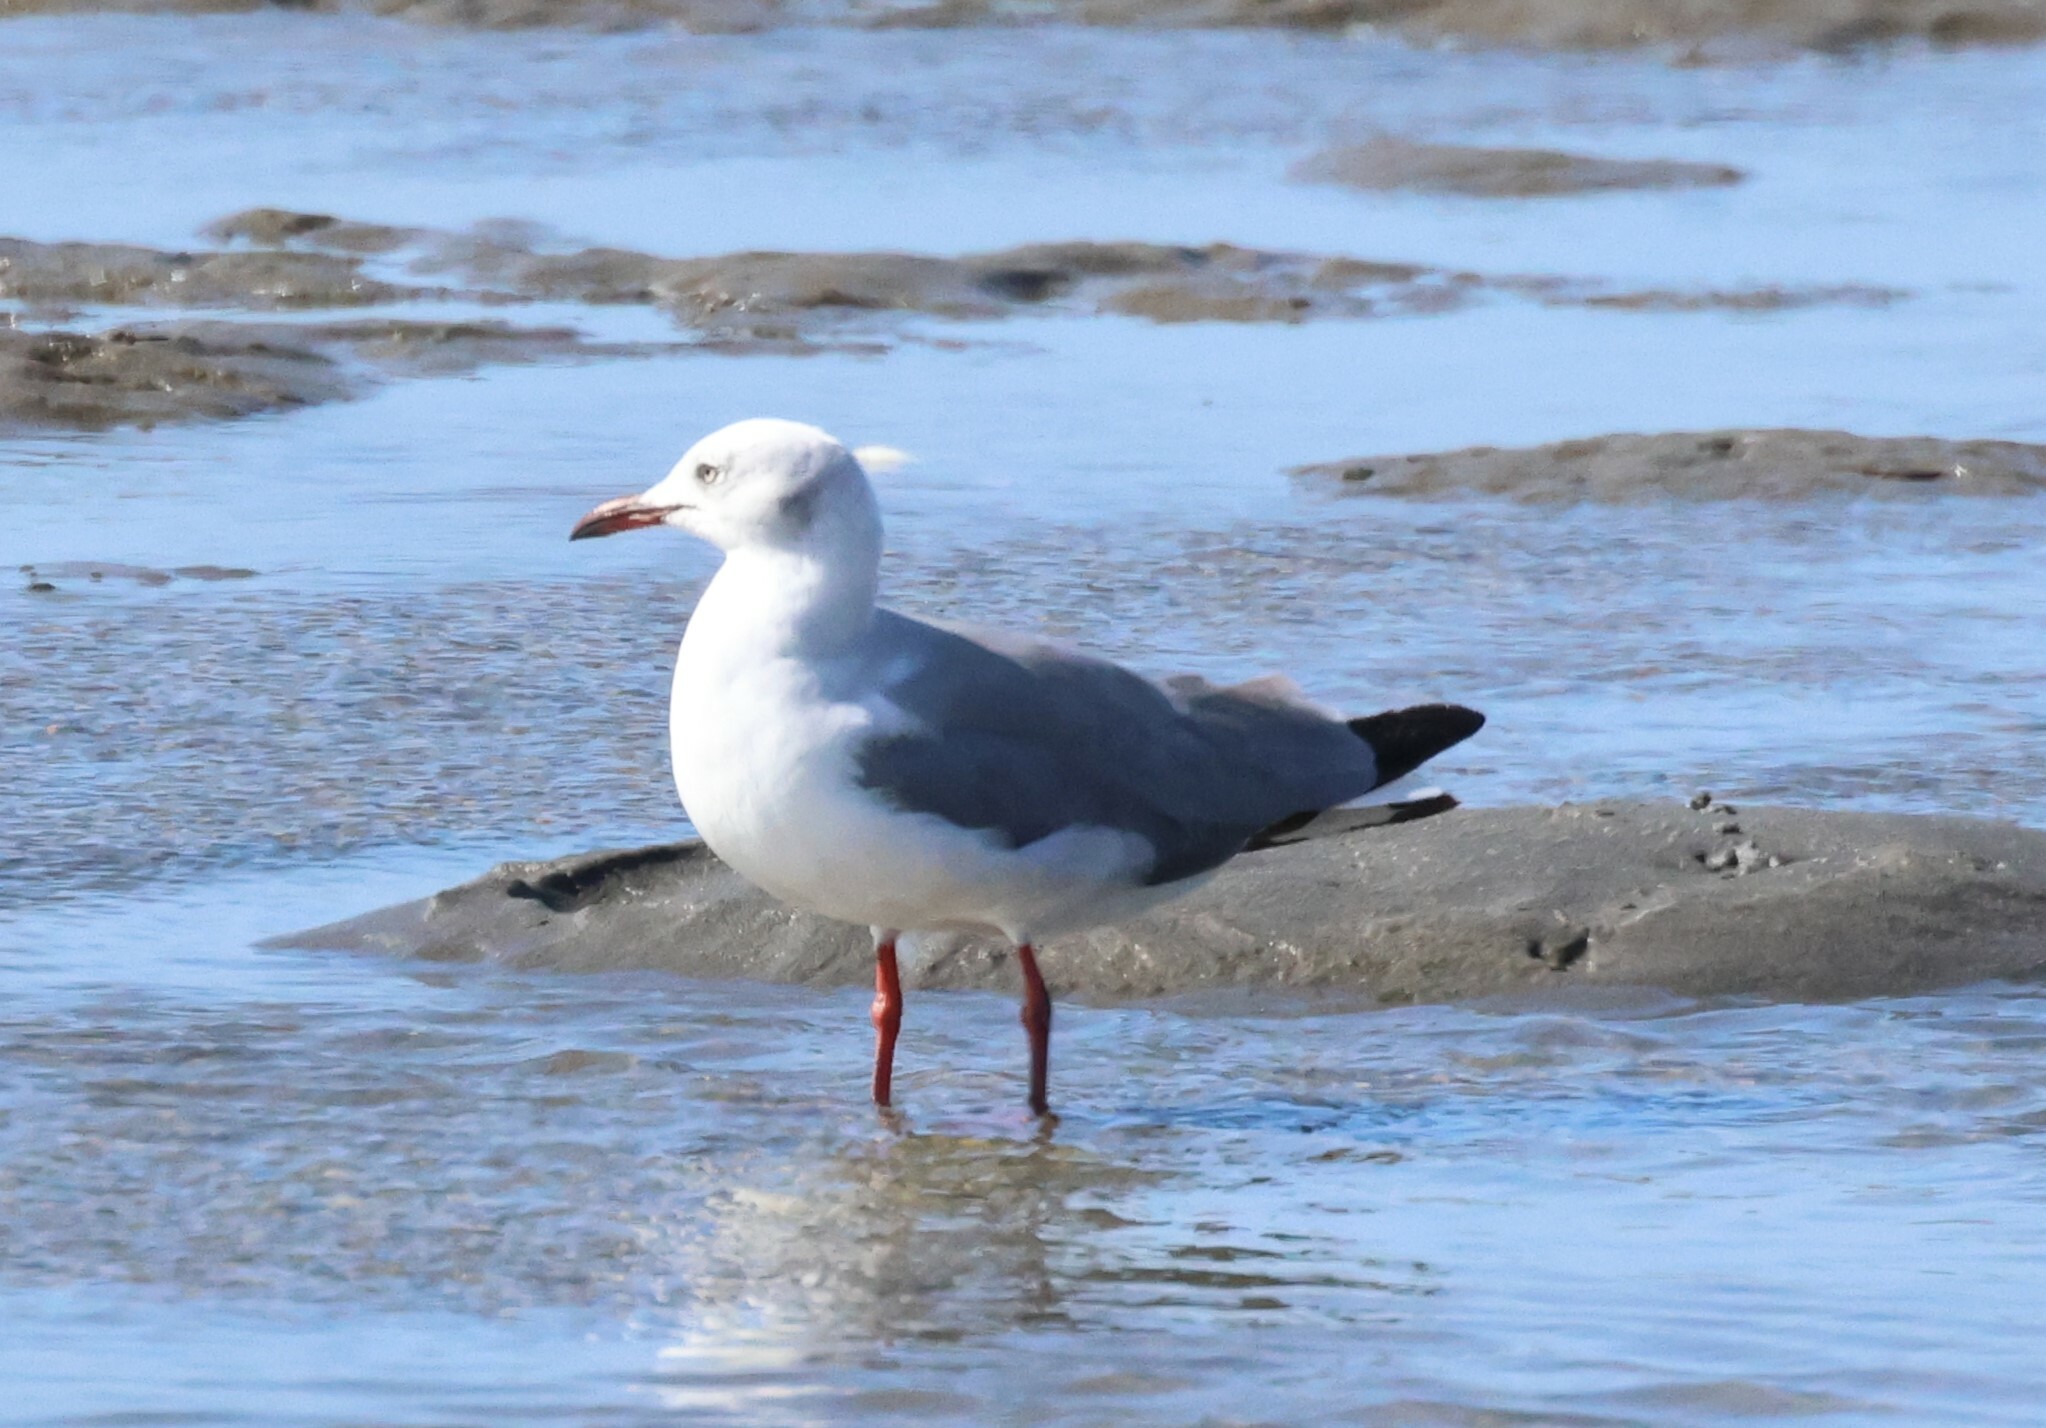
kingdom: Animalia
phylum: Chordata
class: Aves
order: Charadriiformes
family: Laridae
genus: Chroicocephalus
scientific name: Chroicocephalus cirrocephalus
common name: Grey-headed gull
